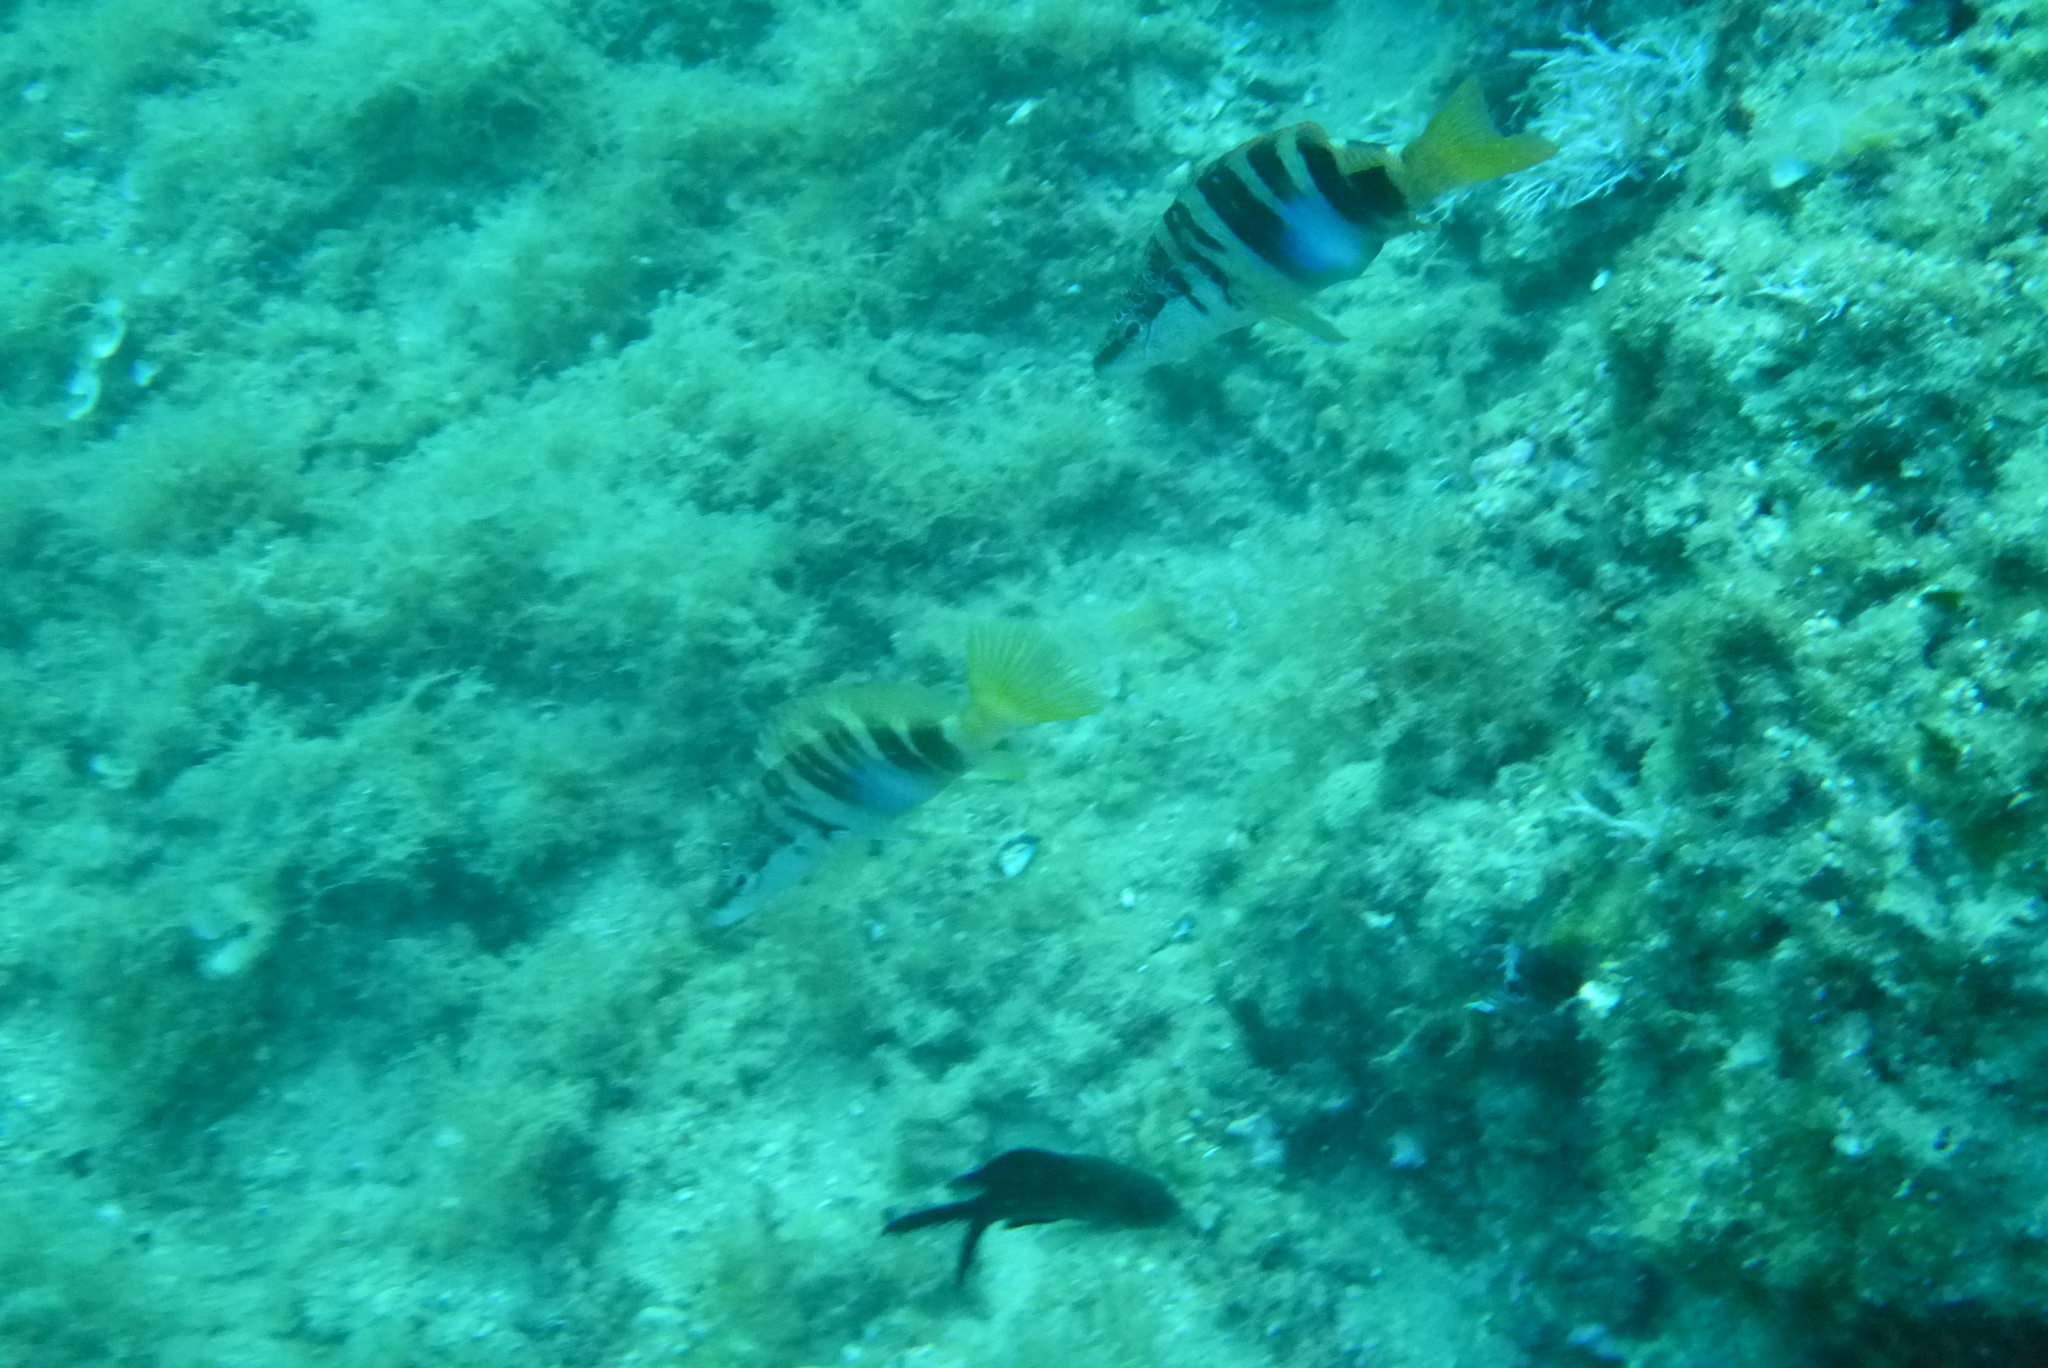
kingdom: Animalia
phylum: Chordata
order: Perciformes
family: Serranidae
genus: Serranus
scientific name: Serranus scriba
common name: Painted comber
